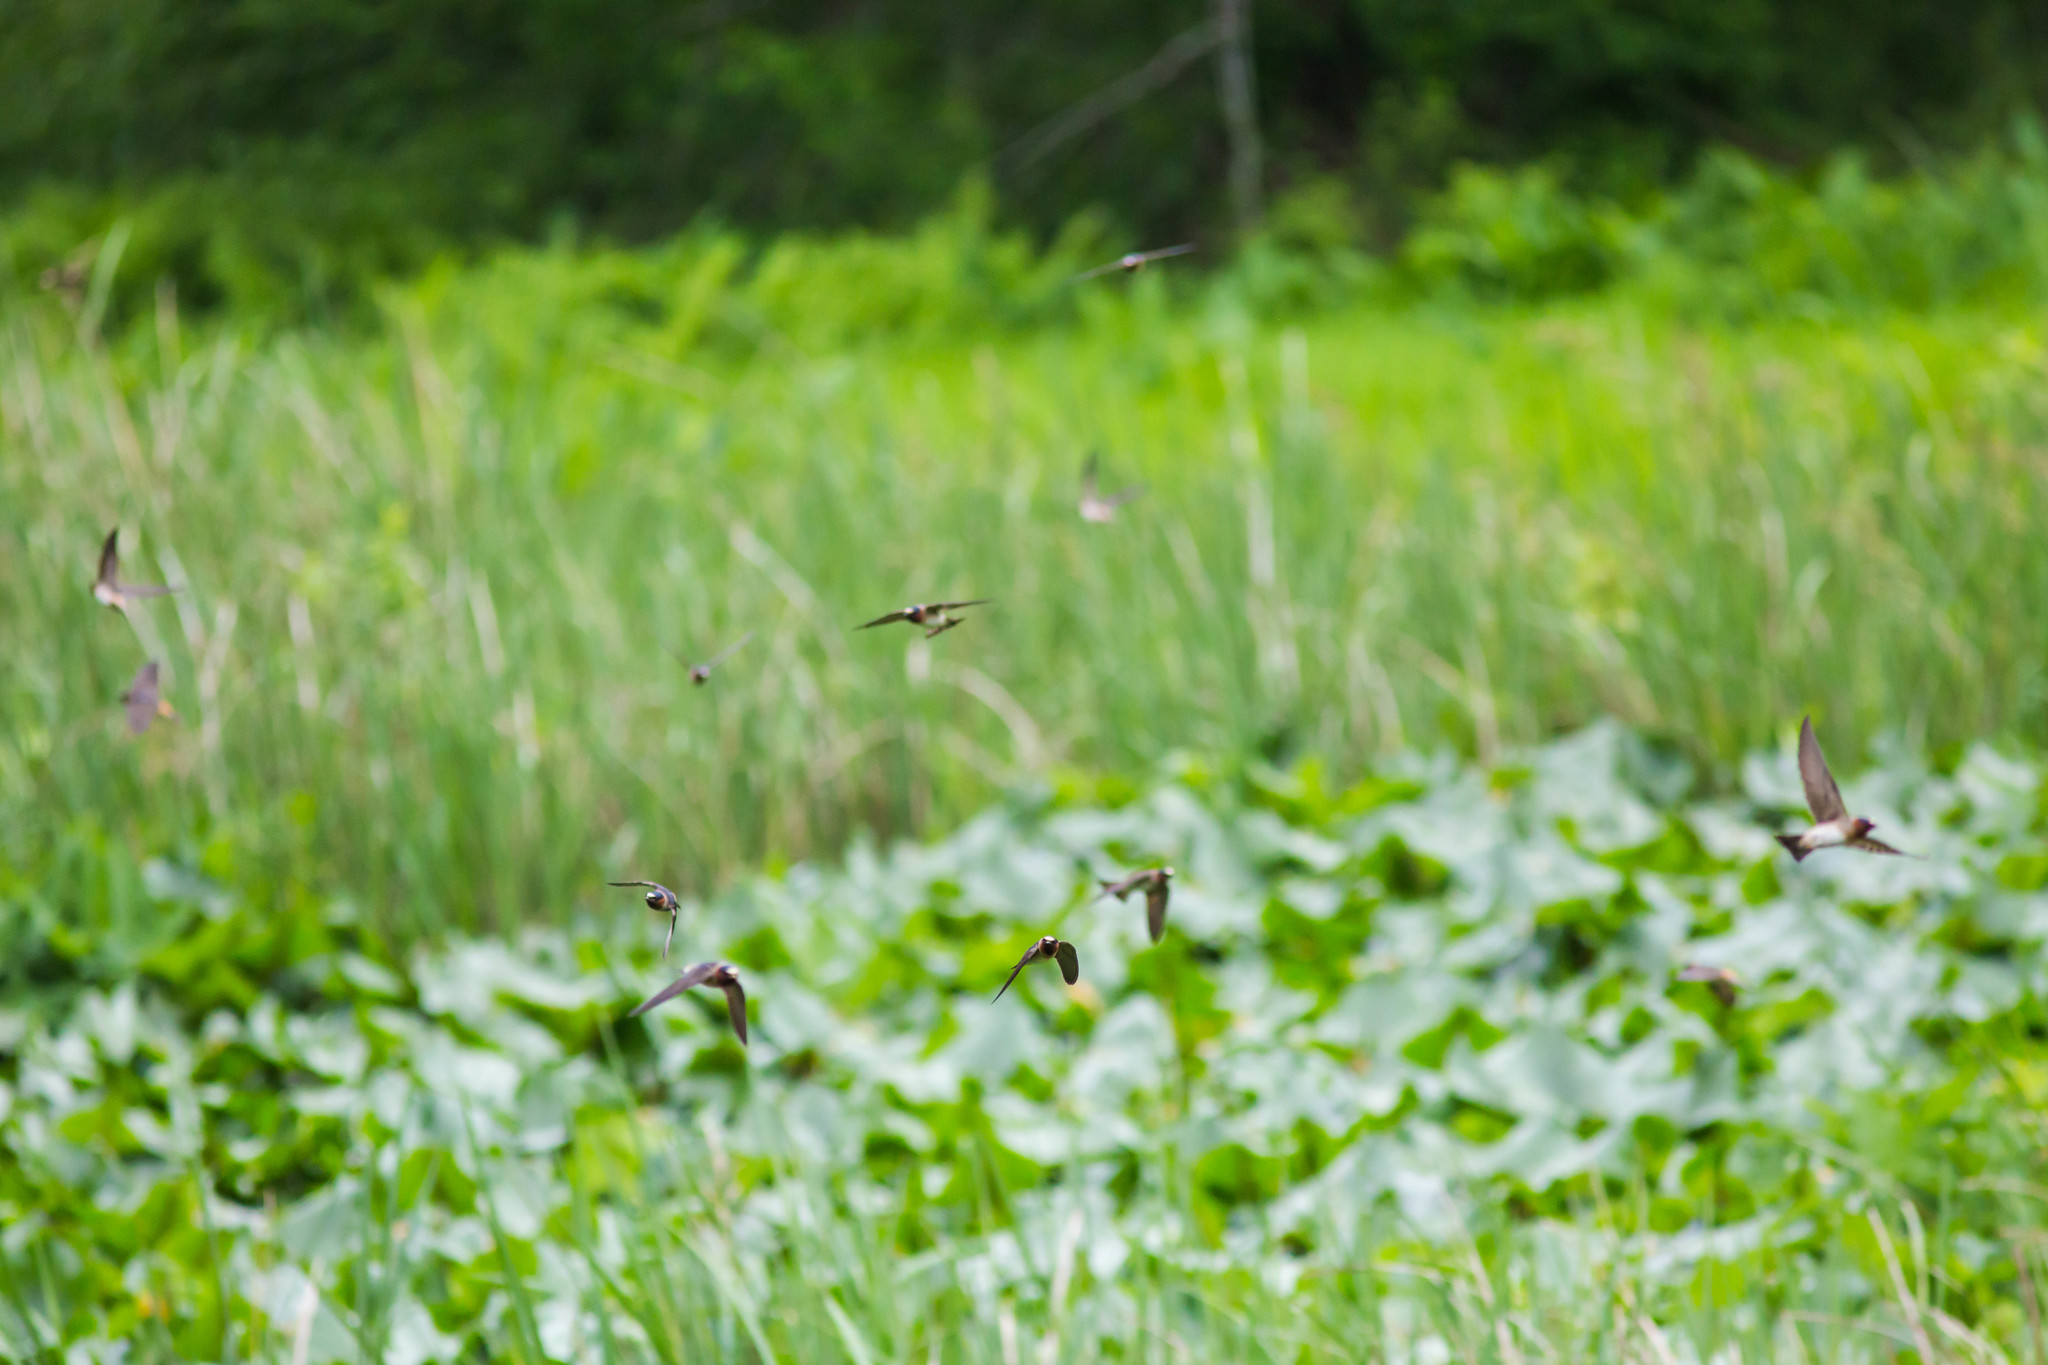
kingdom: Animalia
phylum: Chordata
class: Aves
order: Passeriformes
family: Hirundinidae
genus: Petrochelidon
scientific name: Petrochelidon pyrrhonota
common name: American cliff swallow
